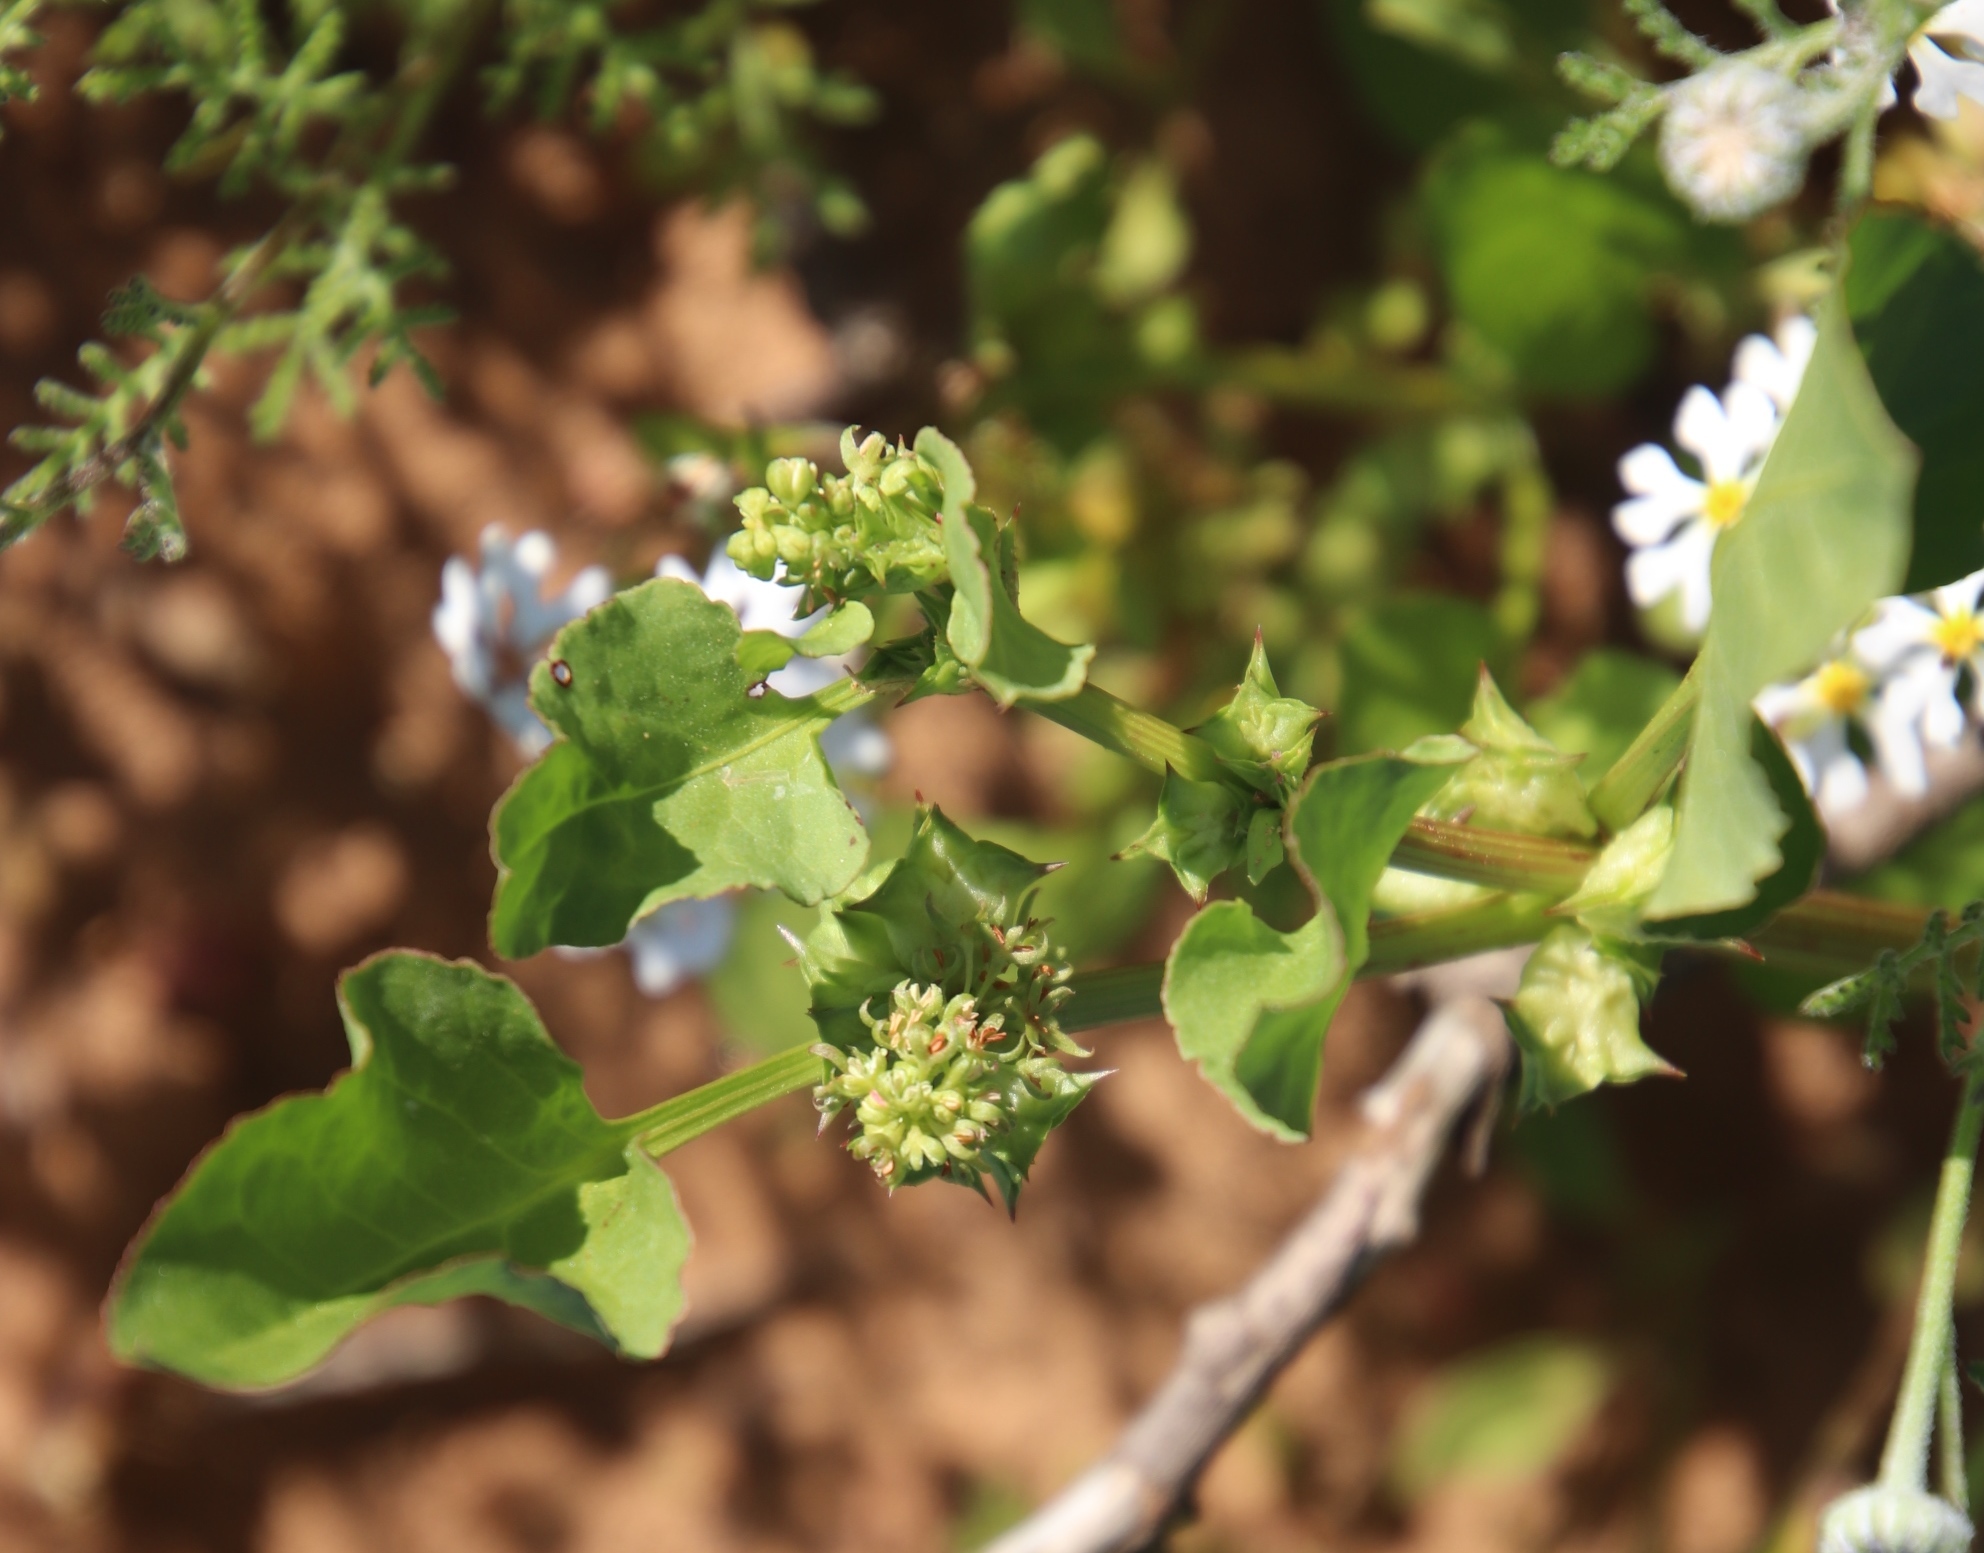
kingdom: Plantae
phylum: Tracheophyta
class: Magnoliopsida
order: Caryophyllales
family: Polygonaceae
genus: Rumex
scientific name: Rumex hypogaeus
